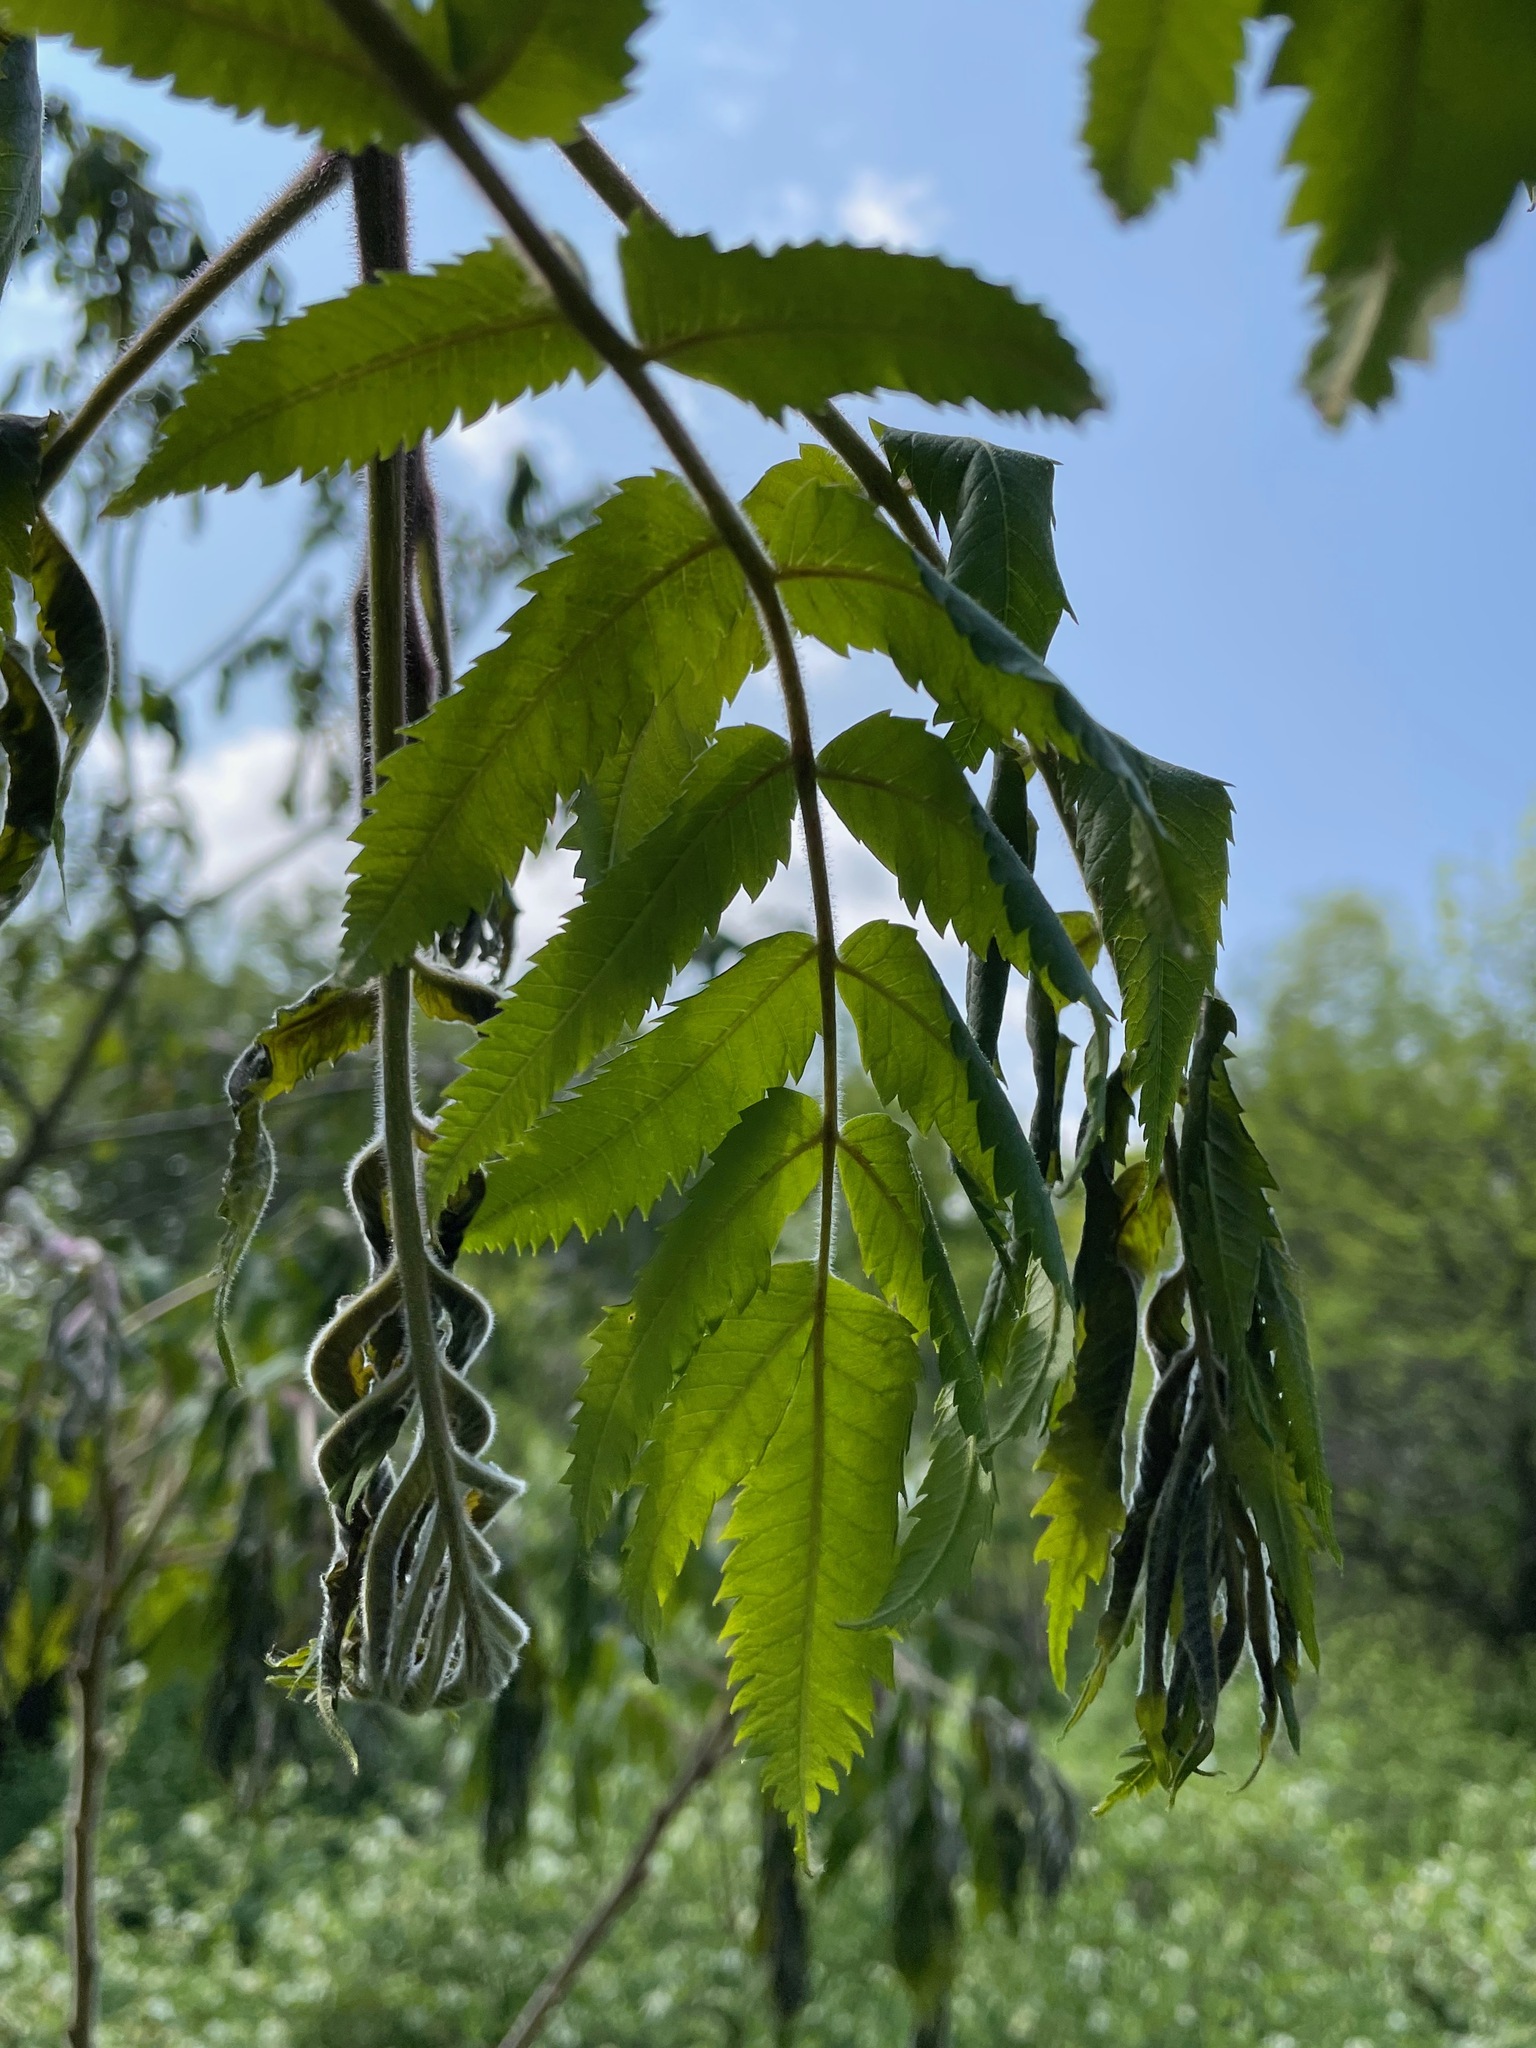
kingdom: Plantae
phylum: Tracheophyta
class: Magnoliopsida
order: Sapindales
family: Anacardiaceae
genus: Rhus
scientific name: Rhus typhina
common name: Staghorn sumac
